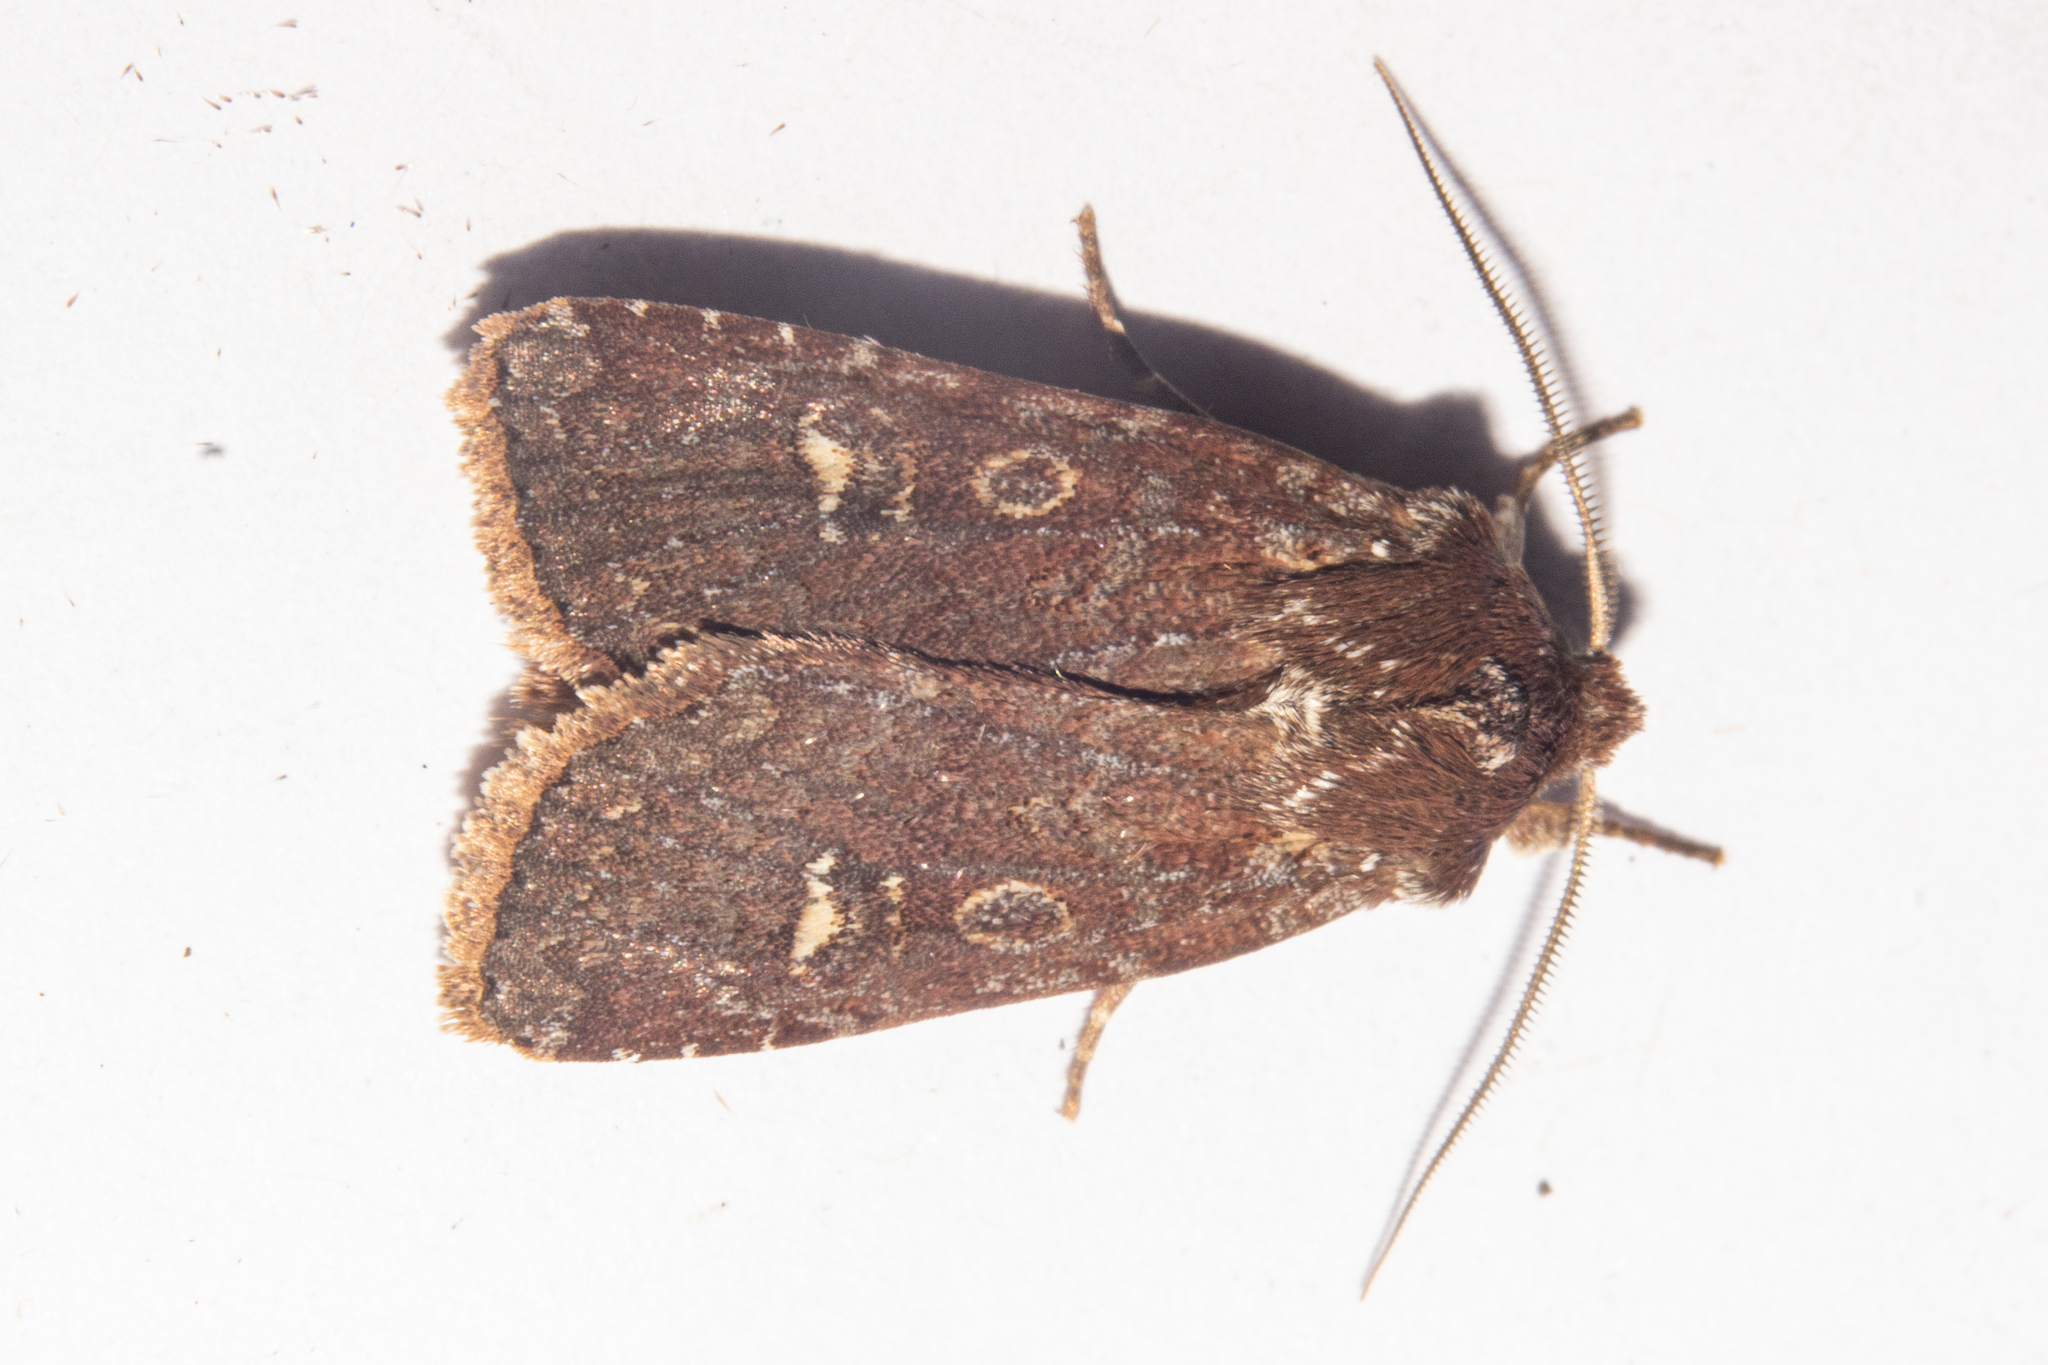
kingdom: Animalia
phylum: Arthropoda
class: Insecta
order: Lepidoptera
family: Noctuidae
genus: Ichneutica
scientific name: Ichneutica agorastis
